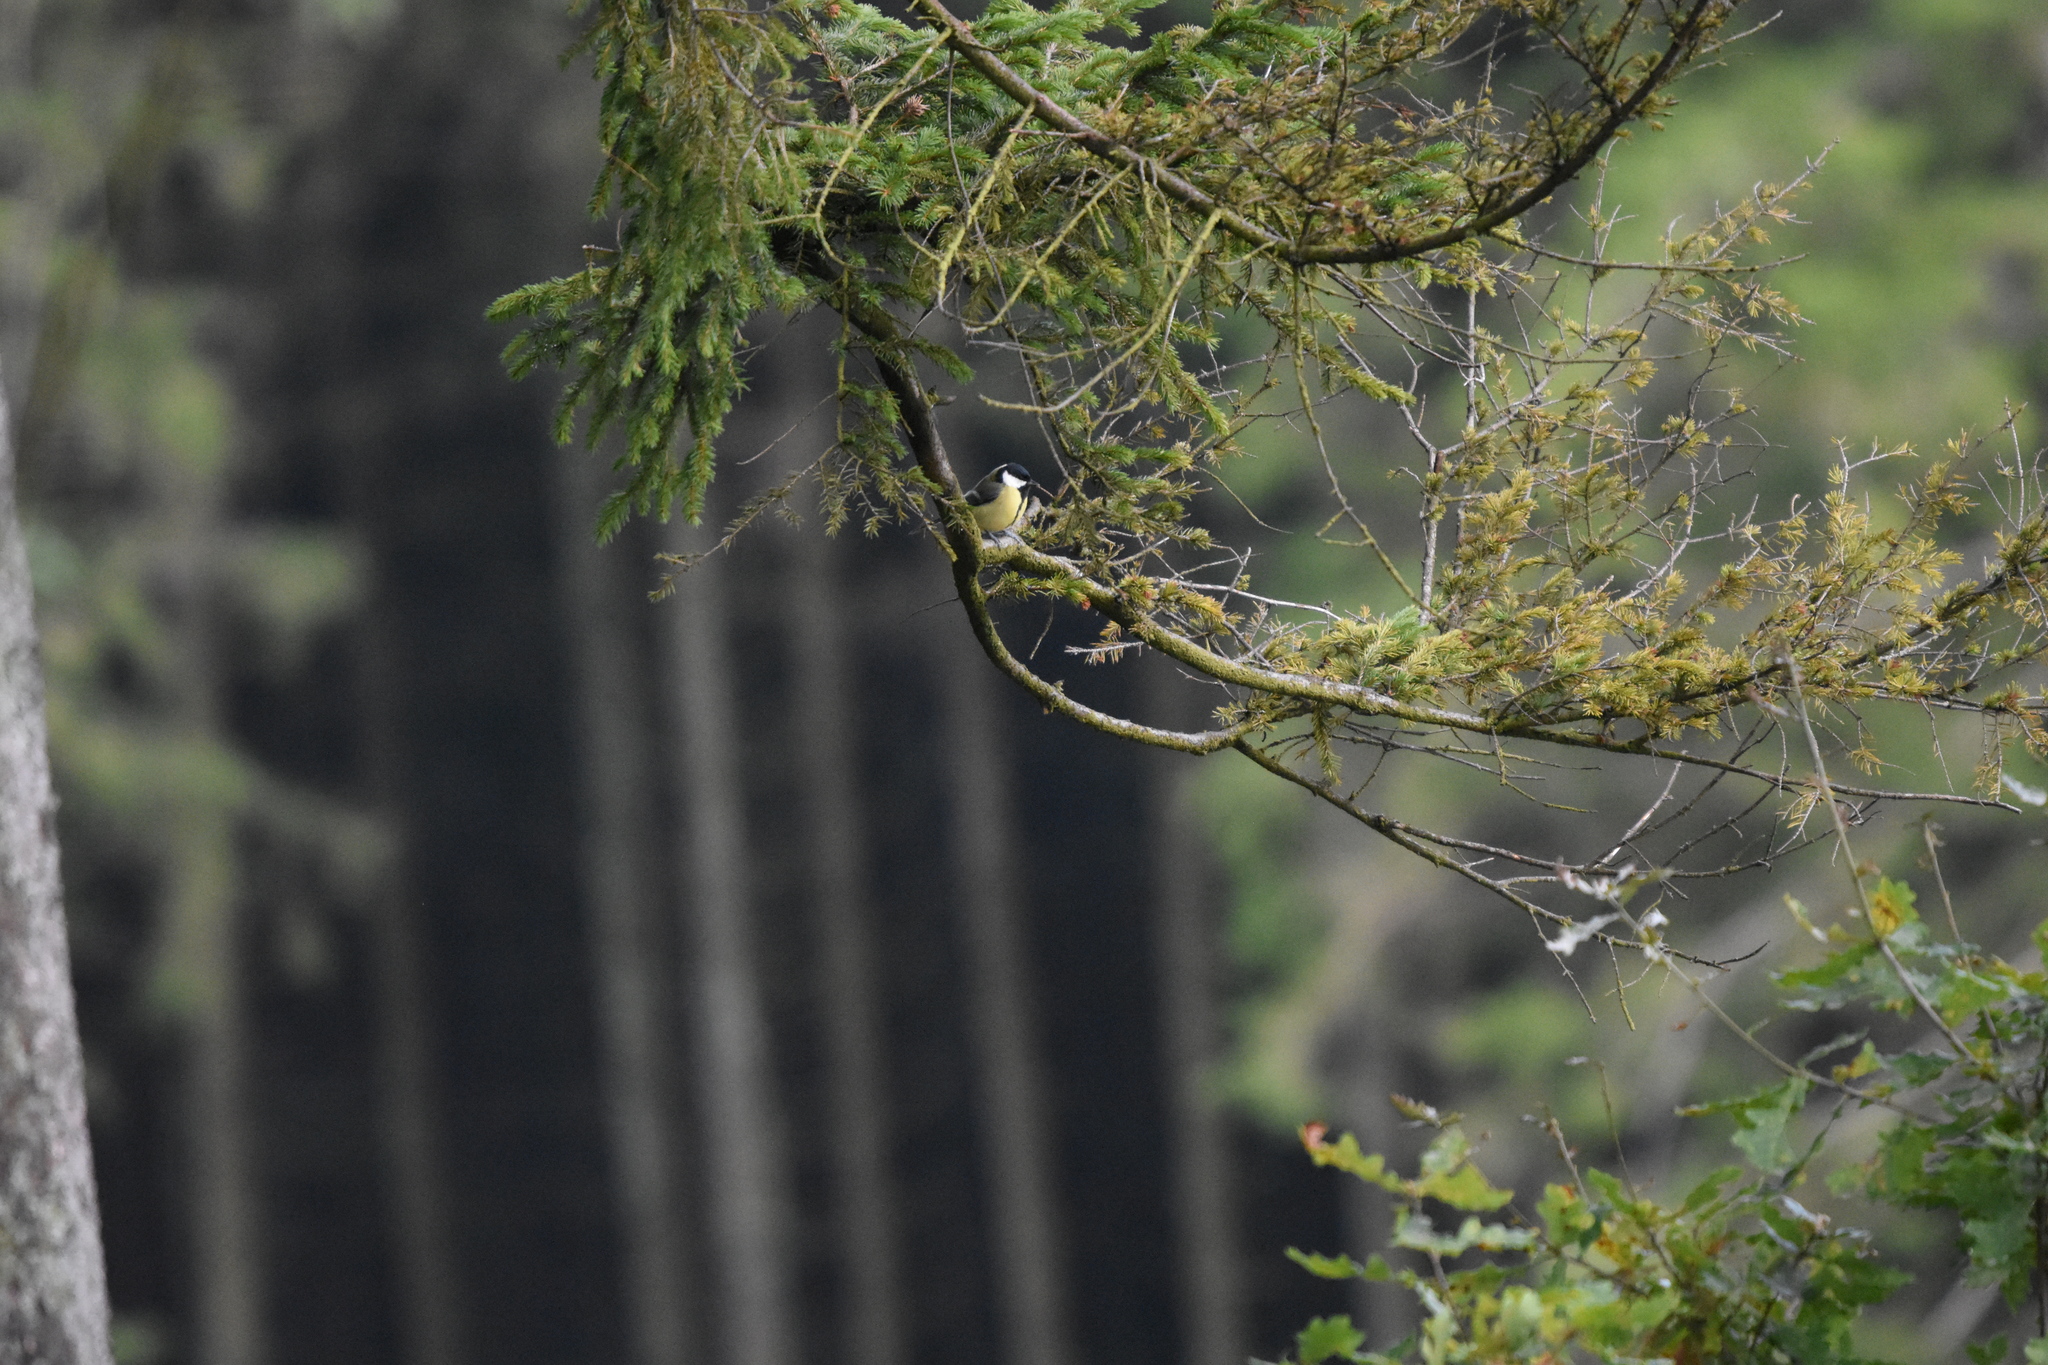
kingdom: Animalia
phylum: Chordata
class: Aves
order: Passeriformes
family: Paridae
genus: Parus
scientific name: Parus major
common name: Great tit
